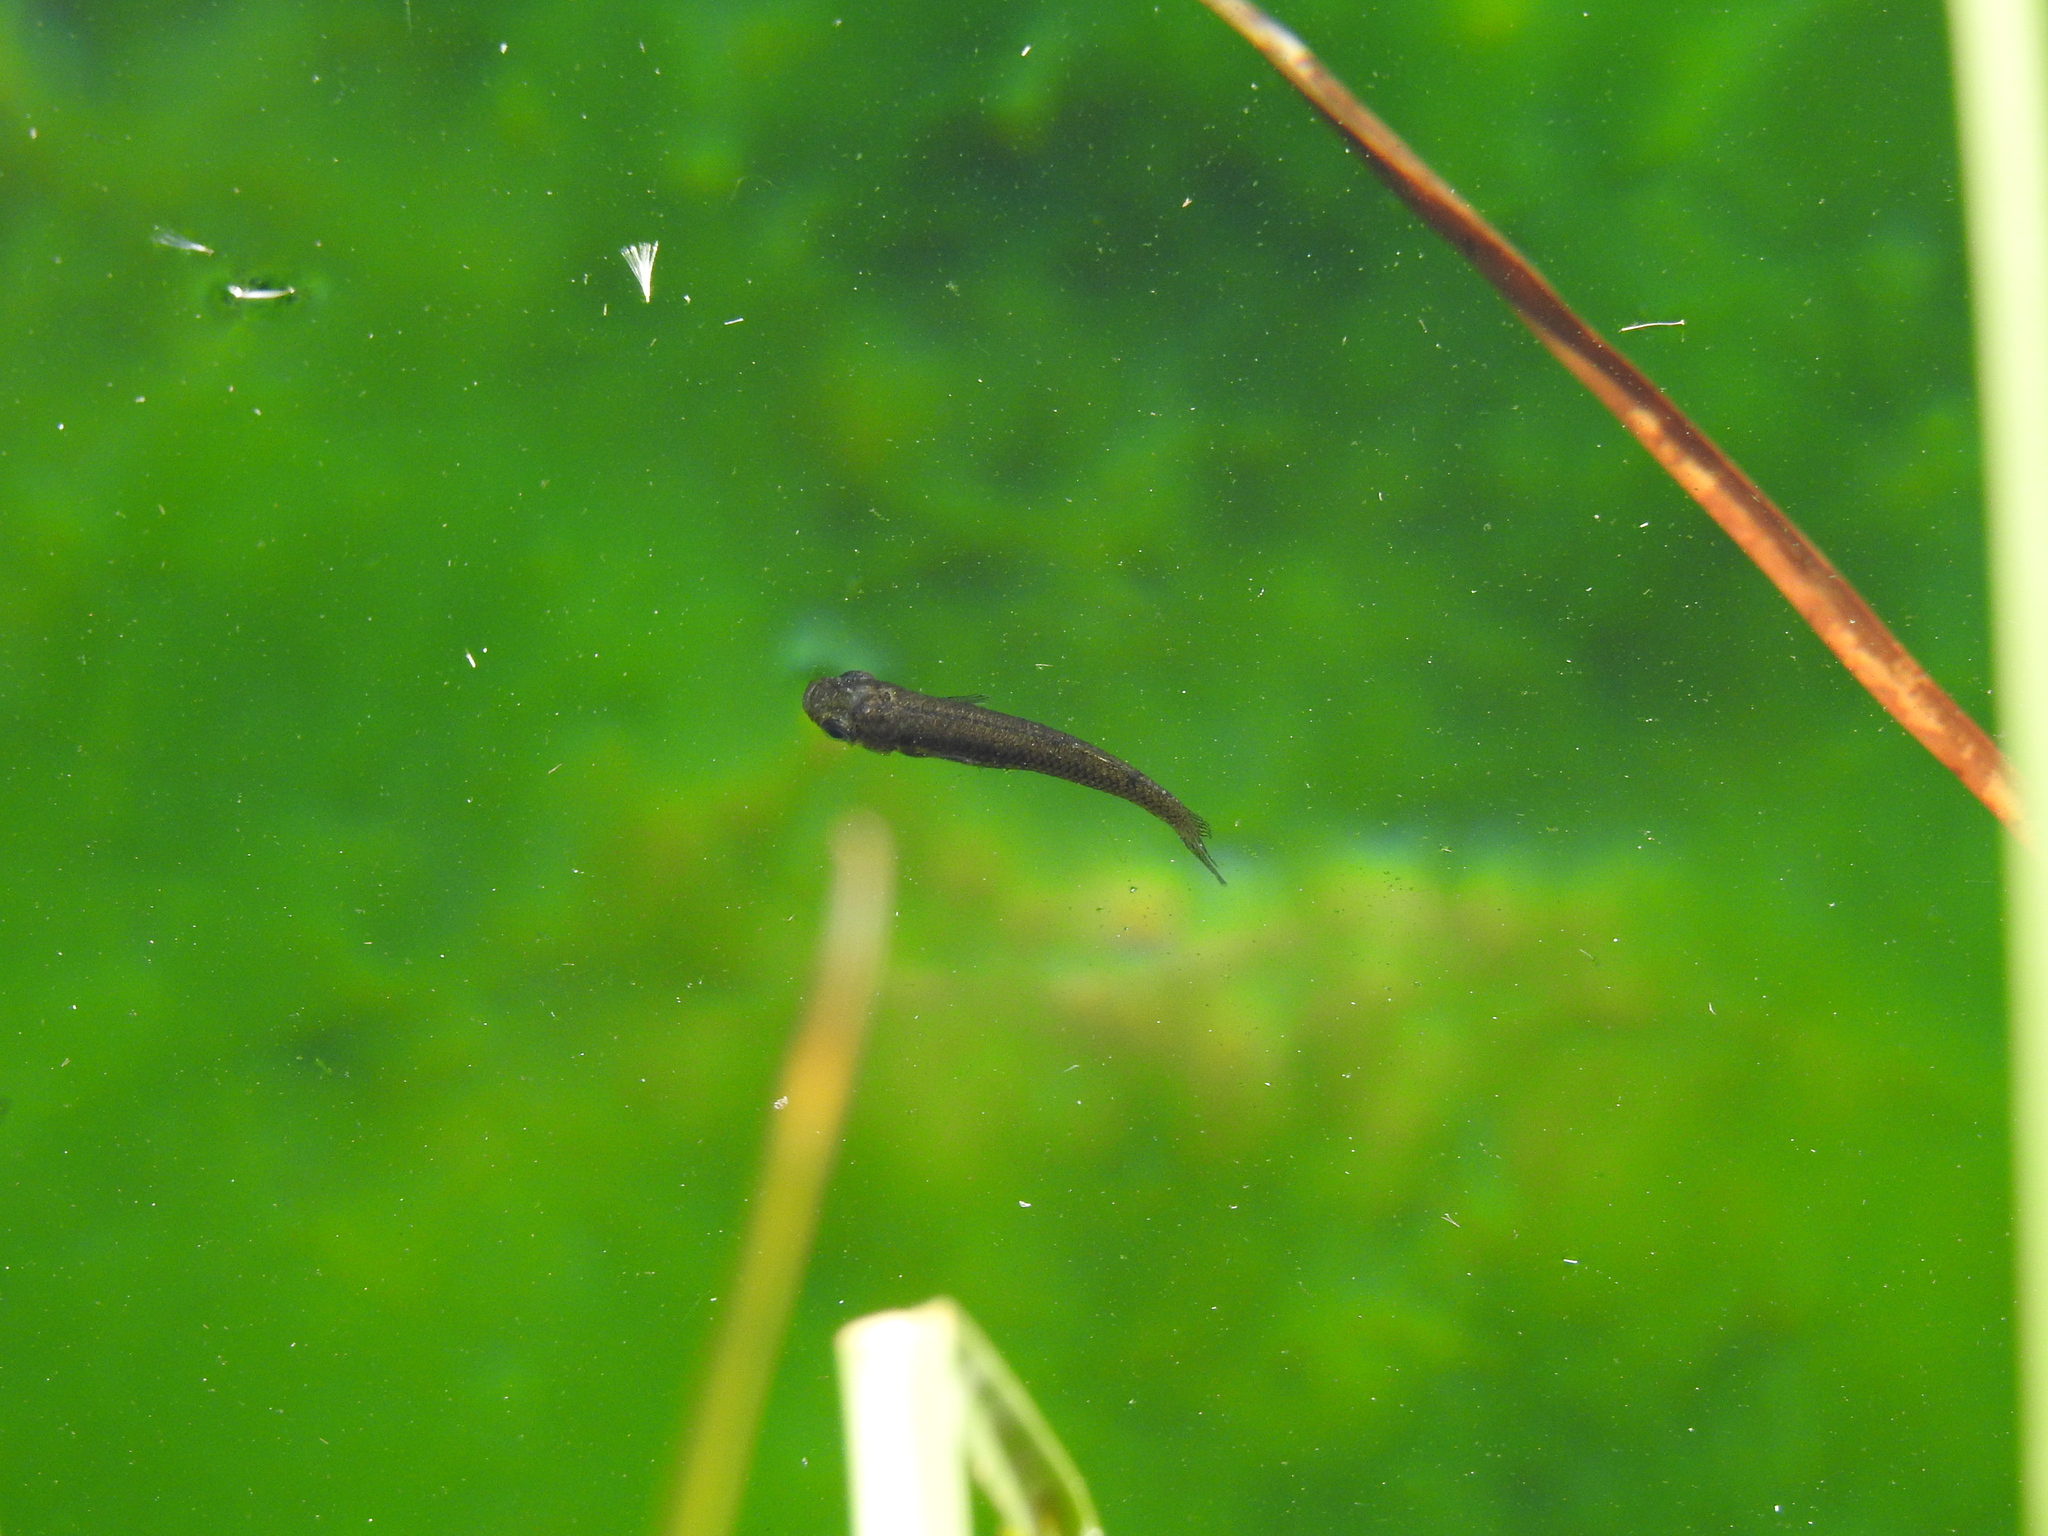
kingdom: Animalia
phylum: Chordata
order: Cyprinodontiformes
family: Poeciliidae
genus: Gambusia
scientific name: Gambusia affinis
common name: Mosquitofish
